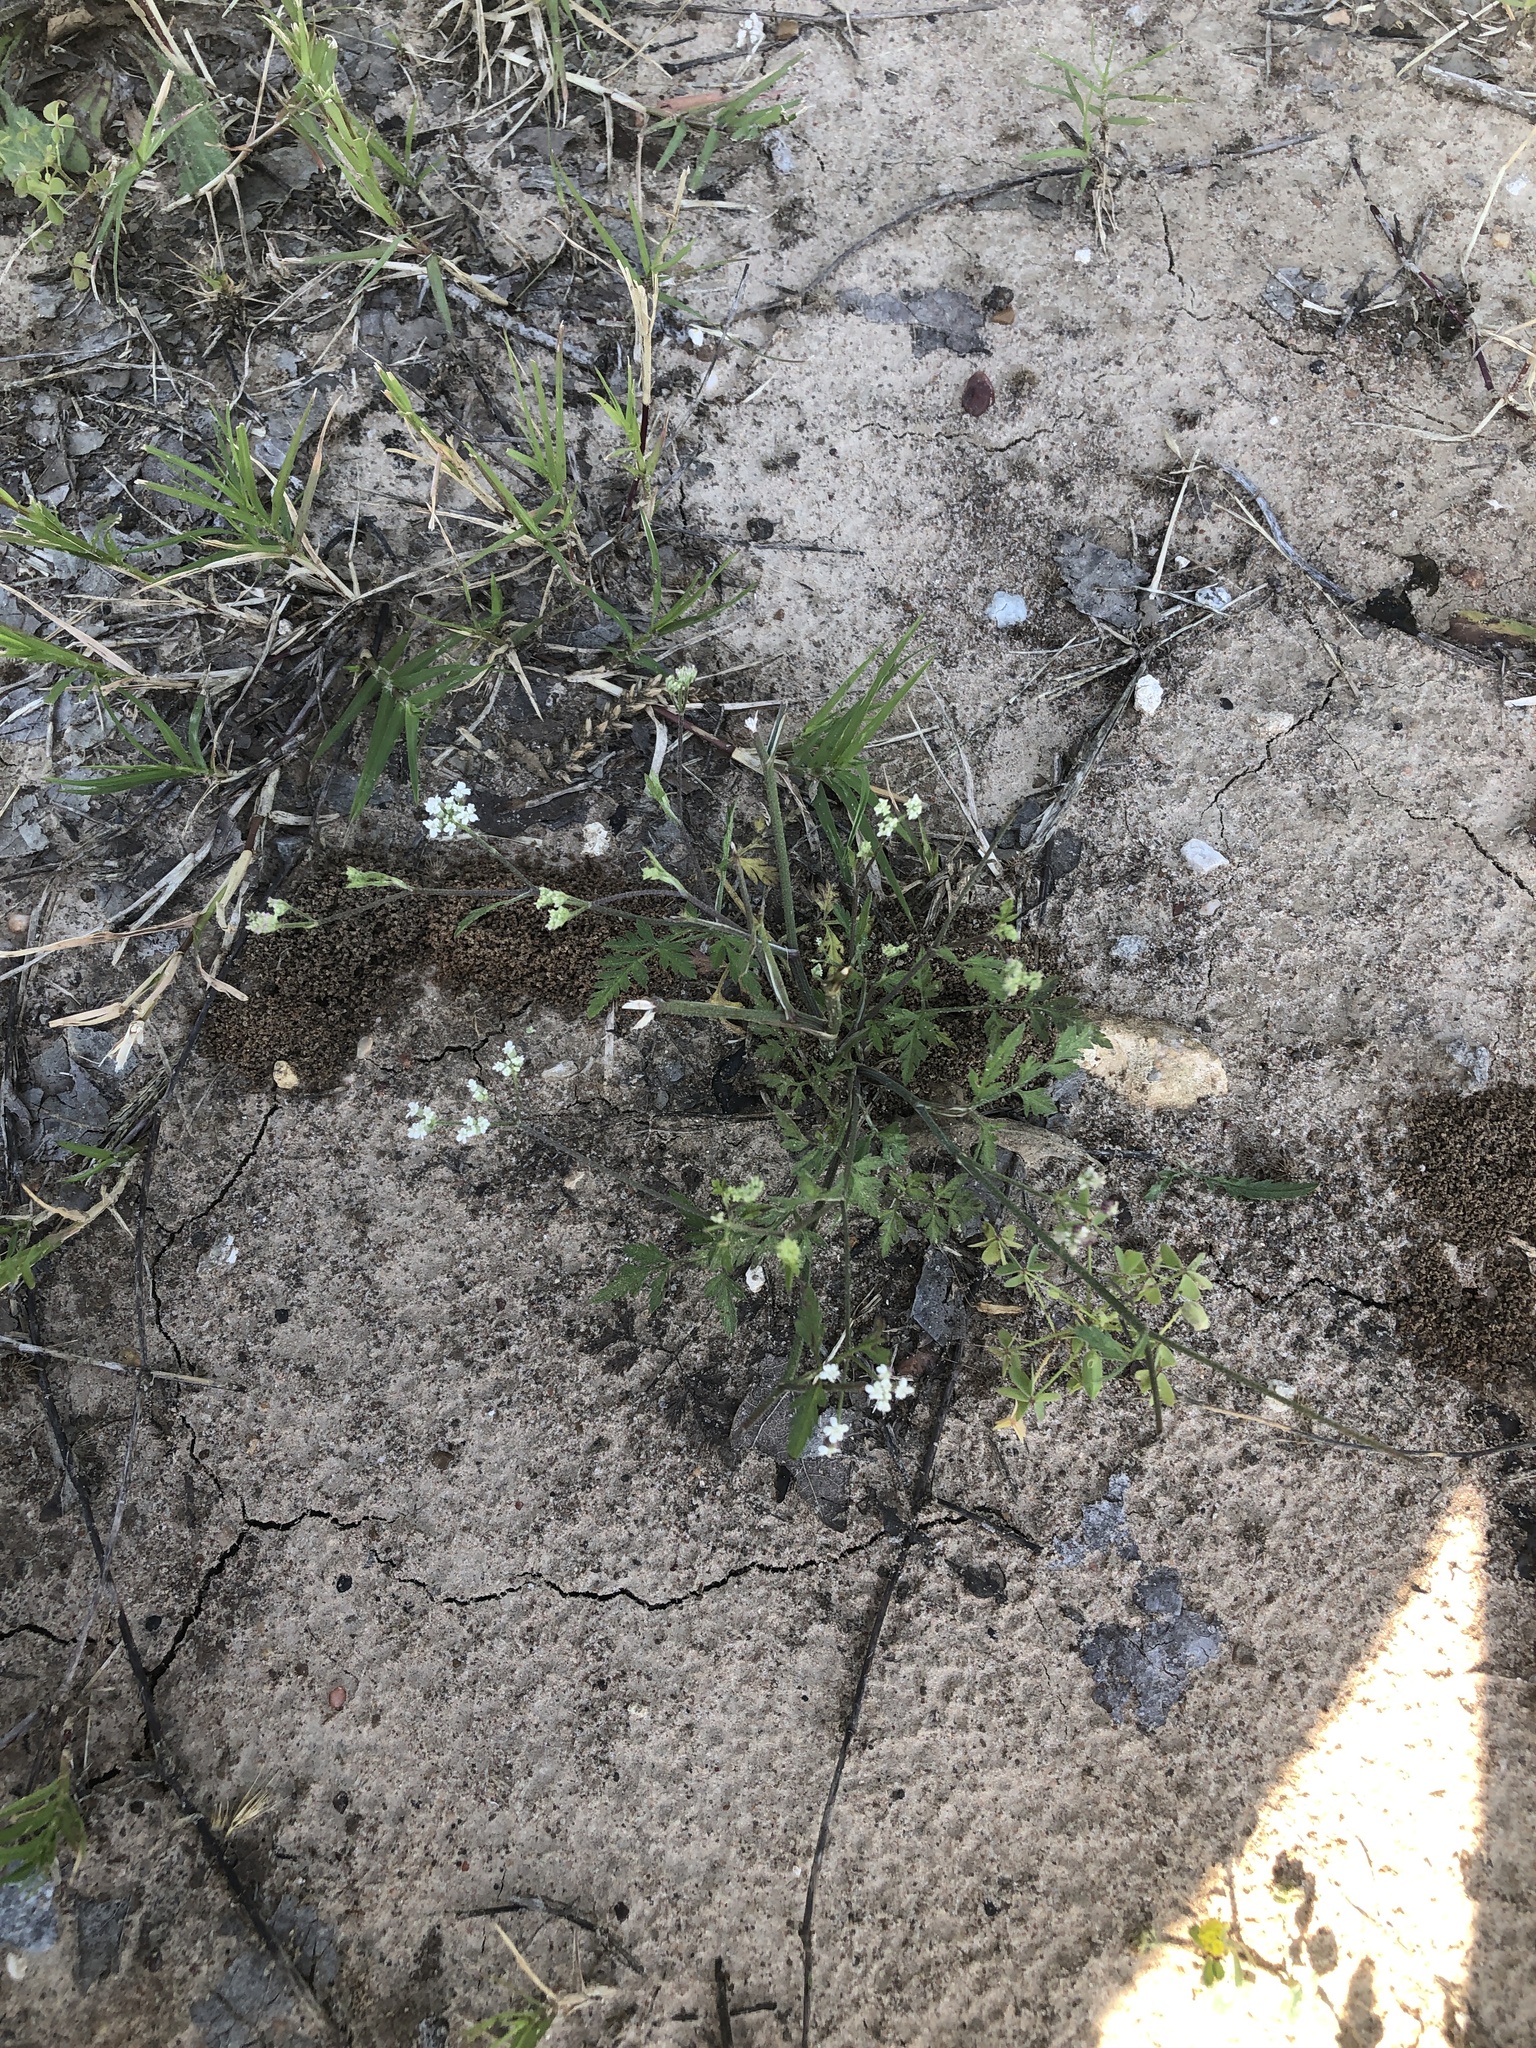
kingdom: Plantae
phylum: Tracheophyta
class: Magnoliopsida
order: Apiales
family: Apiaceae
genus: Torilis
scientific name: Torilis arvensis
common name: Spreading hedge-parsley
